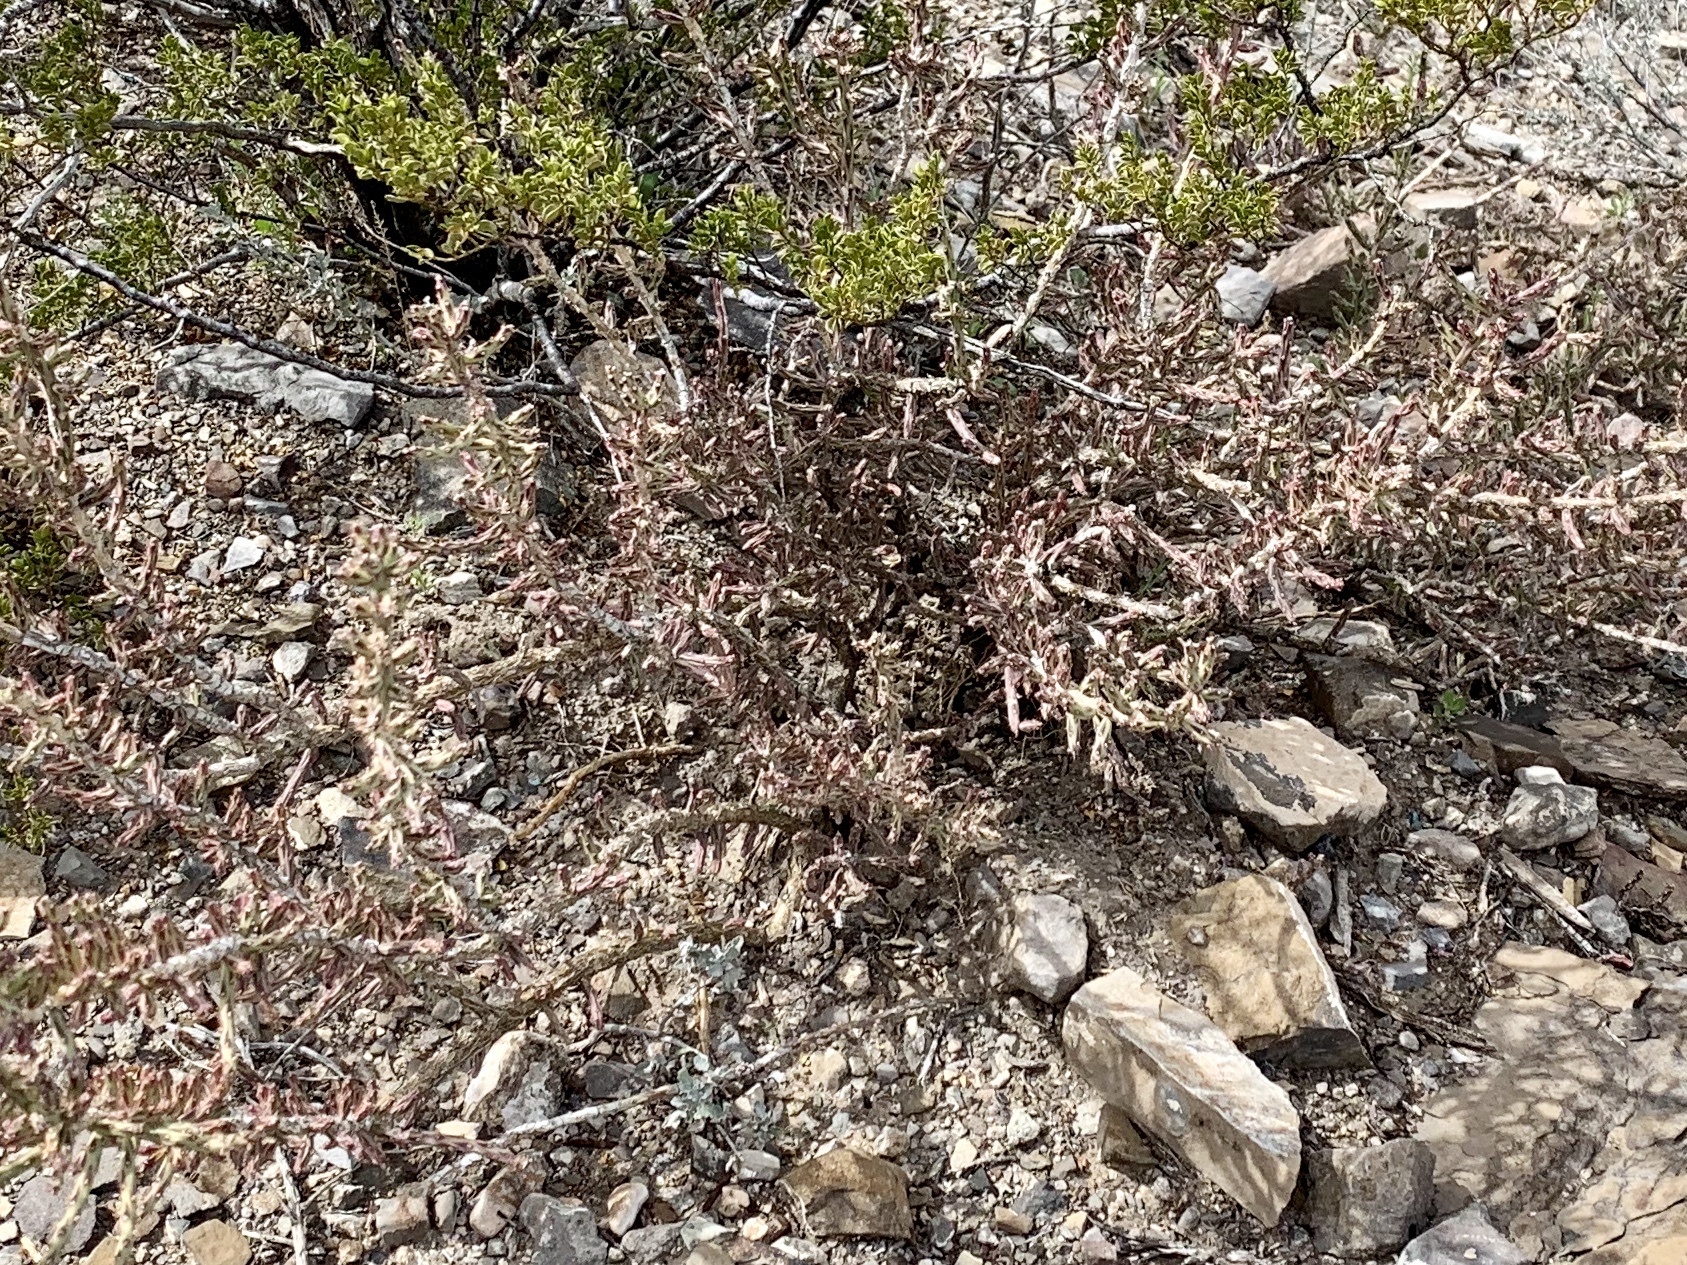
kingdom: Plantae
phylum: Tracheophyta
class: Magnoliopsida
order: Caryophyllales
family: Cactaceae
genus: Cylindropuntia
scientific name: Cylindropuntia leptocaulis
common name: Christmas cactus
